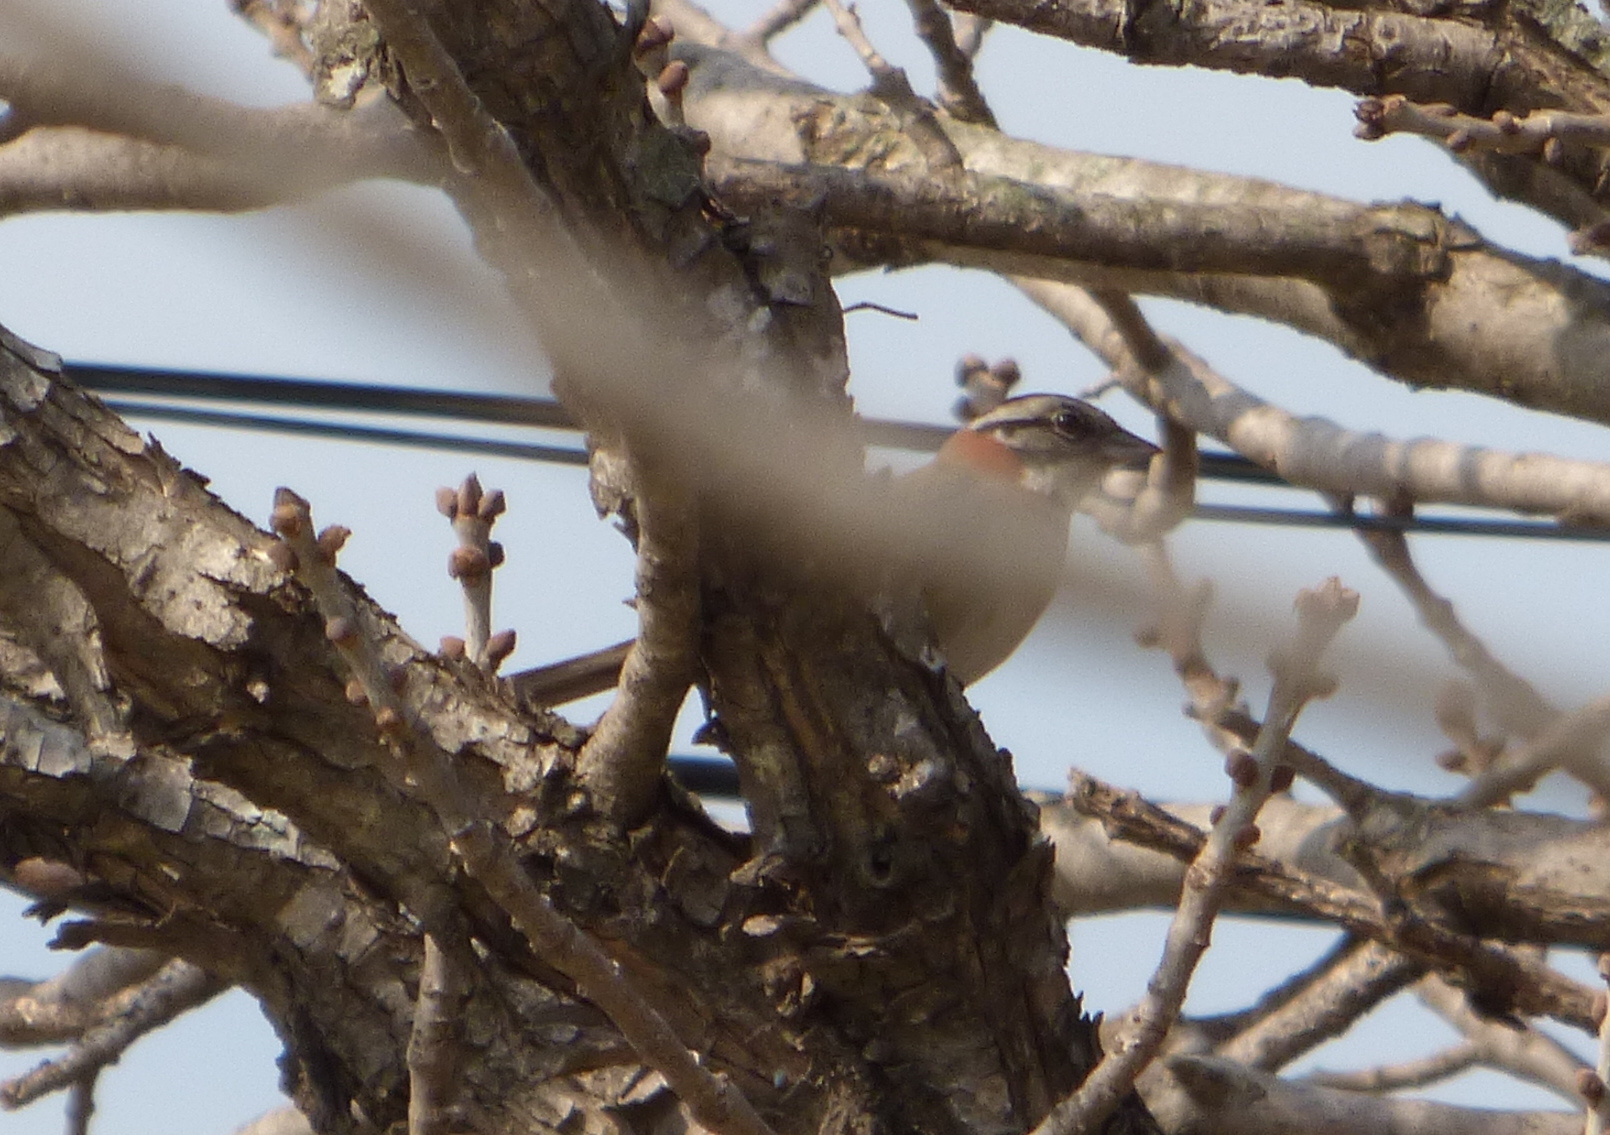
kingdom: Animalia
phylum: Chordata
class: Aves
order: Passeriformes
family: Passerellidae
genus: Zonotrichia
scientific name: Zonotrichia capensis
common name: Rufous-collared sparrow
